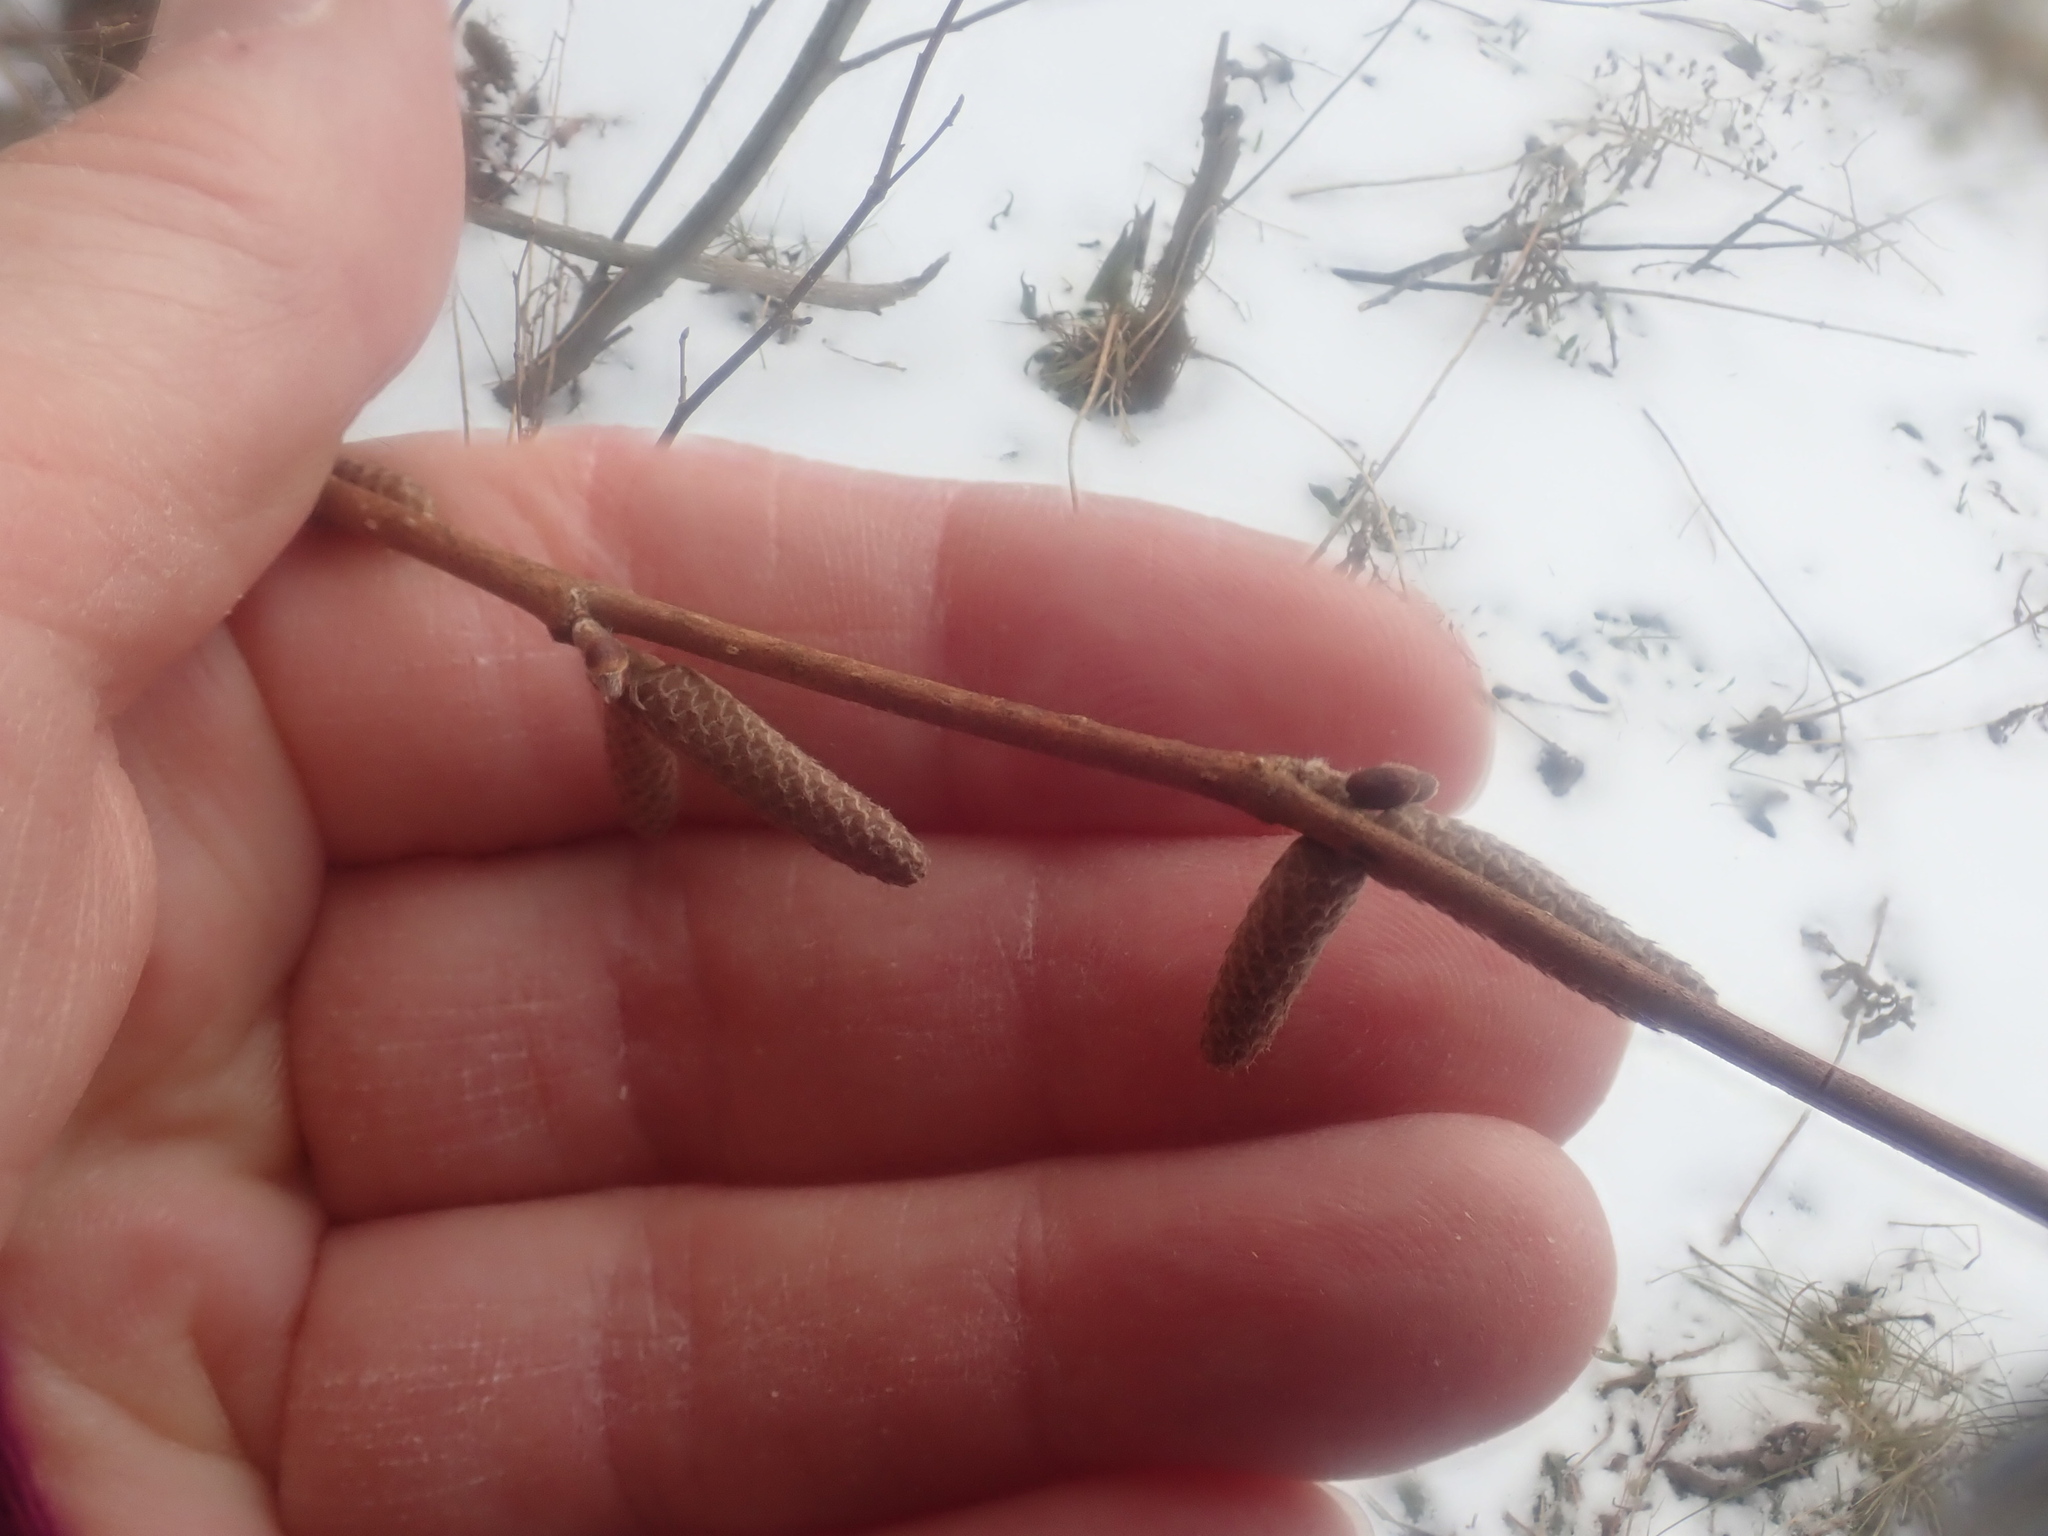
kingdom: Plantae
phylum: Tracheophyta
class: Magnoliopsida
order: Fagales
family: Betulaceae
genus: Corylus
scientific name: Corylus cornuta
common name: Beaked hazel
